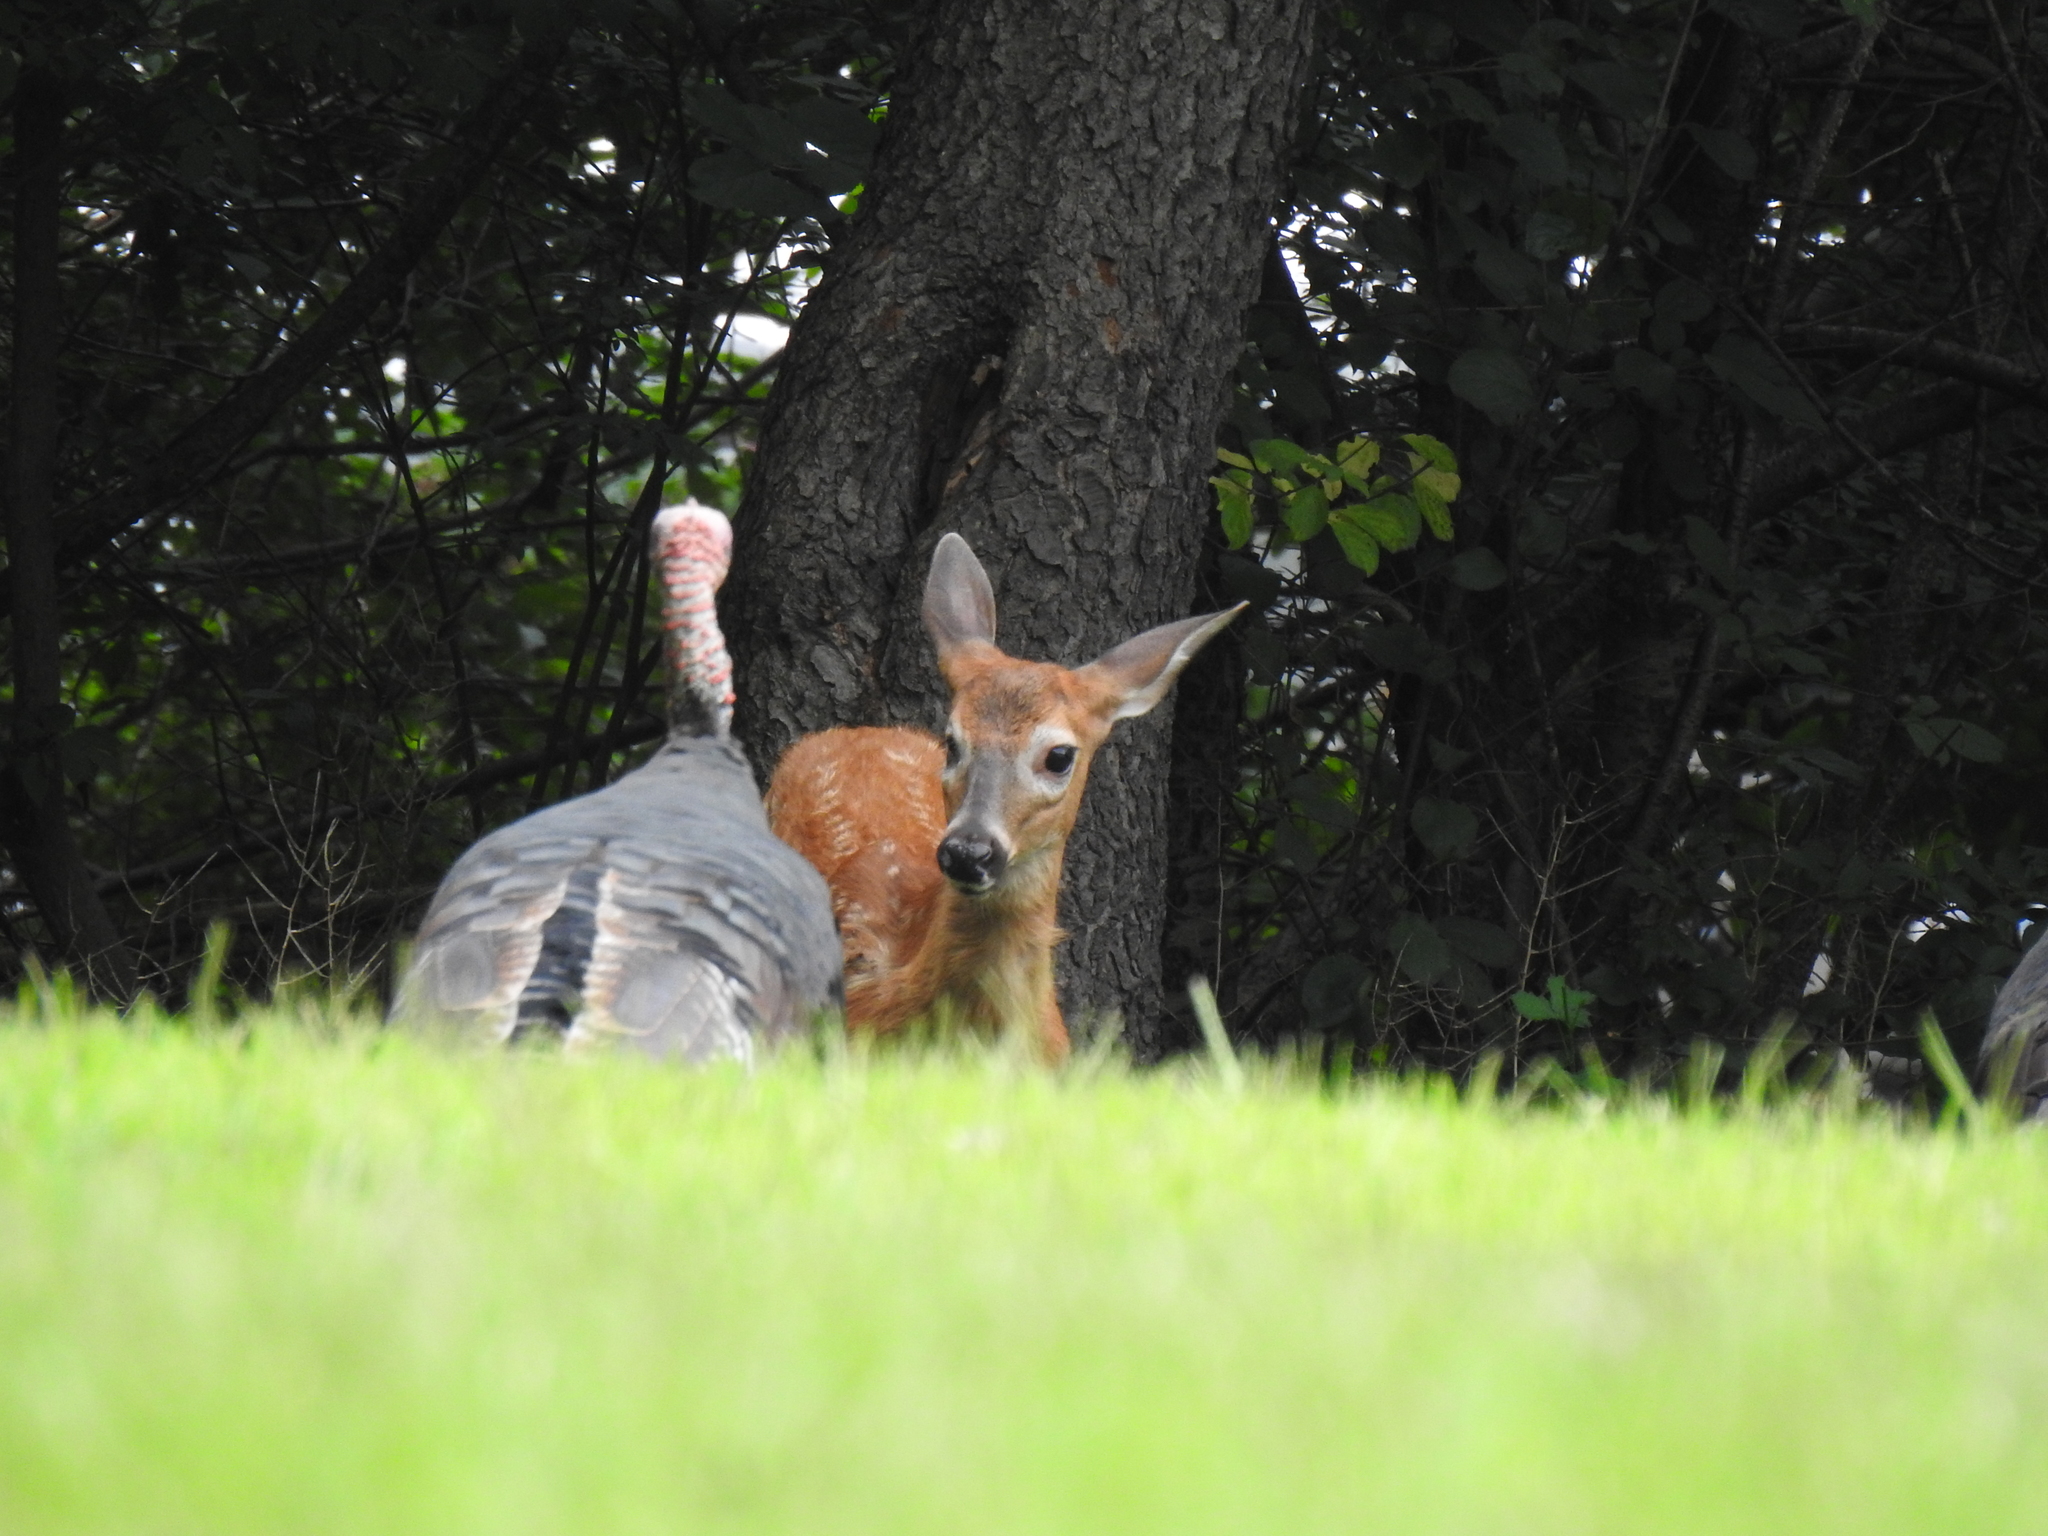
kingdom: Animalia
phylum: Chordata
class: Aves
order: Galliformes
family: Phasianidae
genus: Meleagris
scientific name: Meleagris gallopavo
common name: Wild turkey
